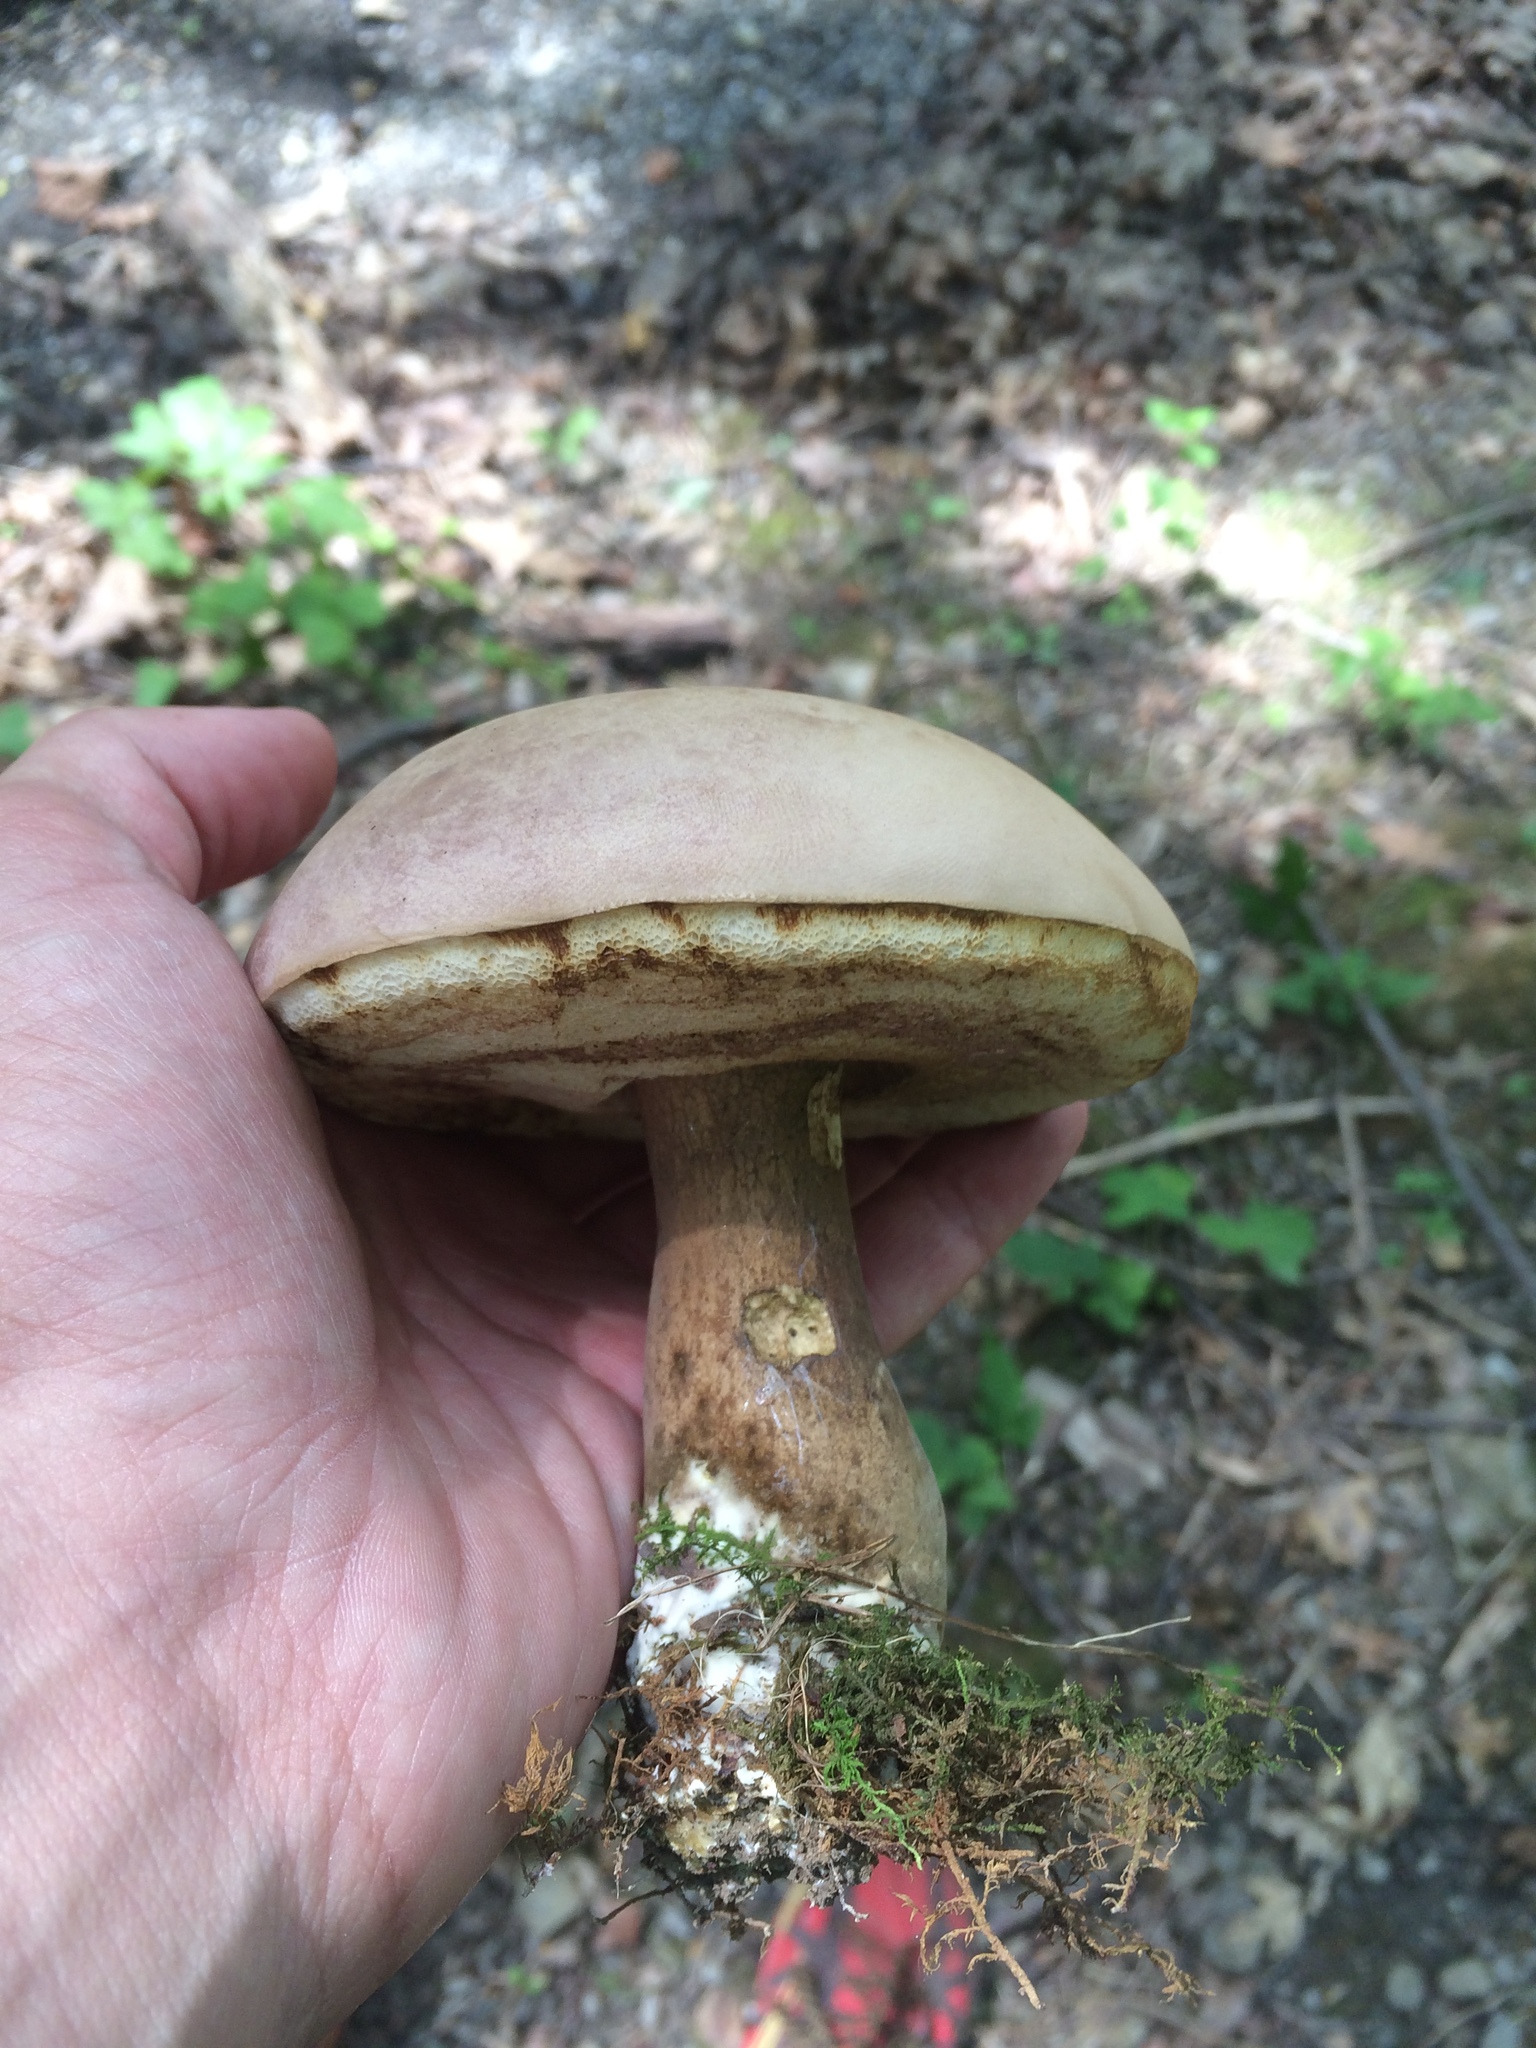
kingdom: Fungi
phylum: Basidiomycota
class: Agaricomycetes
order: Boletales
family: Boletaceae
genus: Tylopilus
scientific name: Tylopilus rubrobrunneus
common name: Reddish brown bitter bolete
